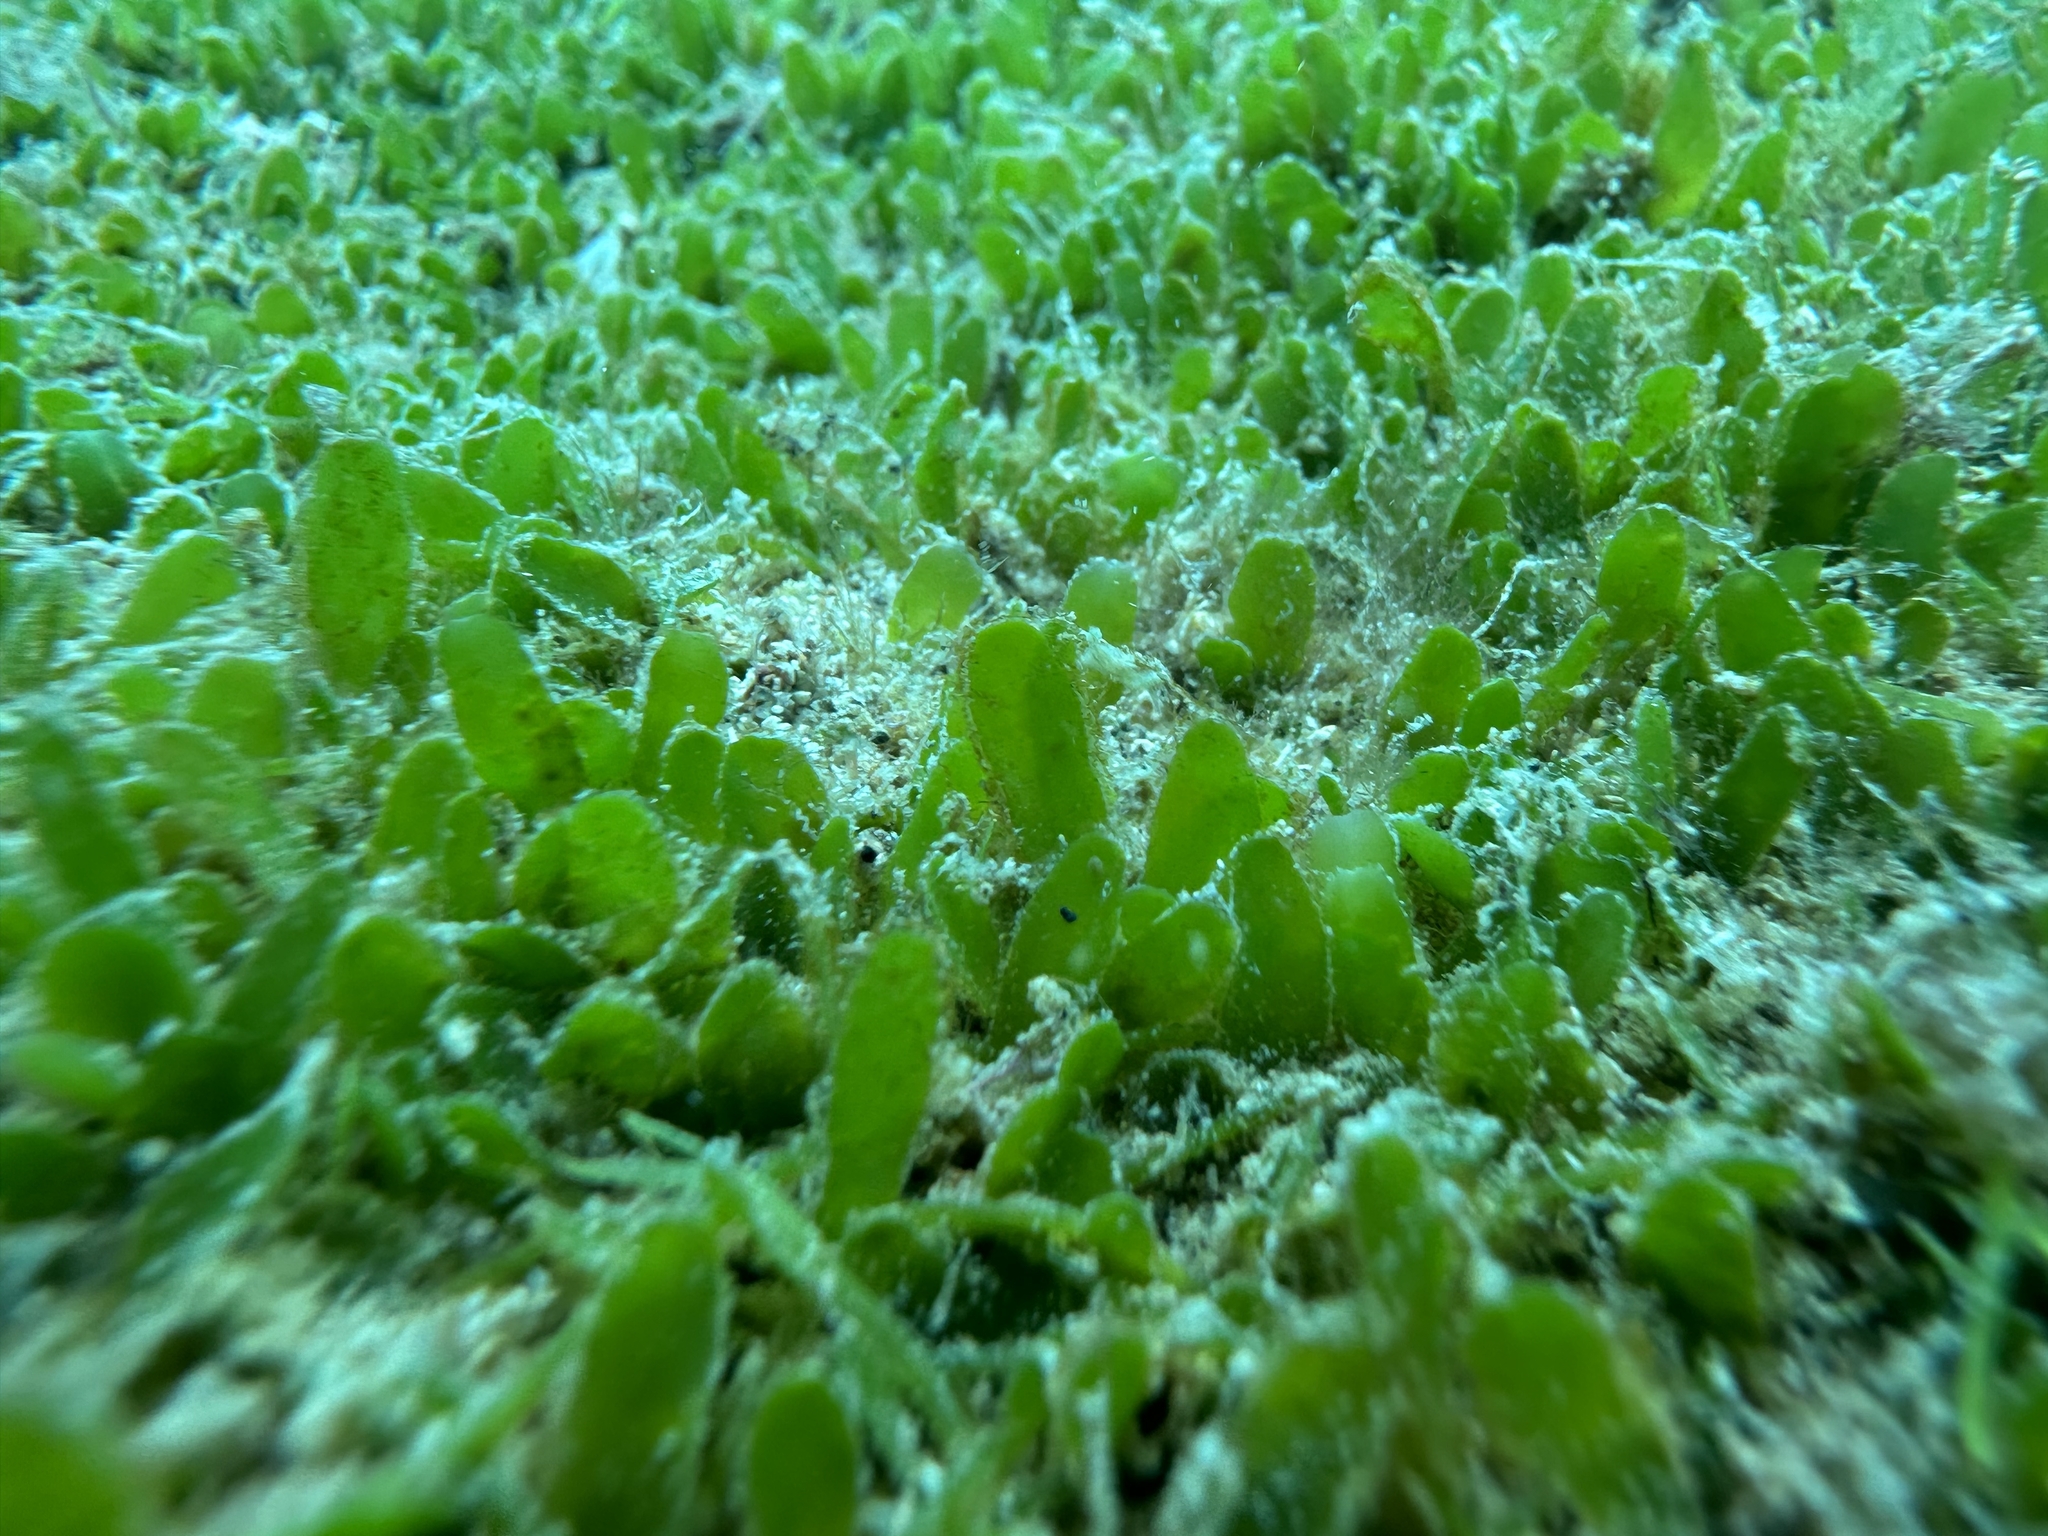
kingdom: Plantae
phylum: Chlorophyta
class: Ulvophyceae
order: Bryopsidales
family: Caulerpaceae
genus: Caulerpa
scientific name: Caulerpa brachypus
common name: Macroalgae
